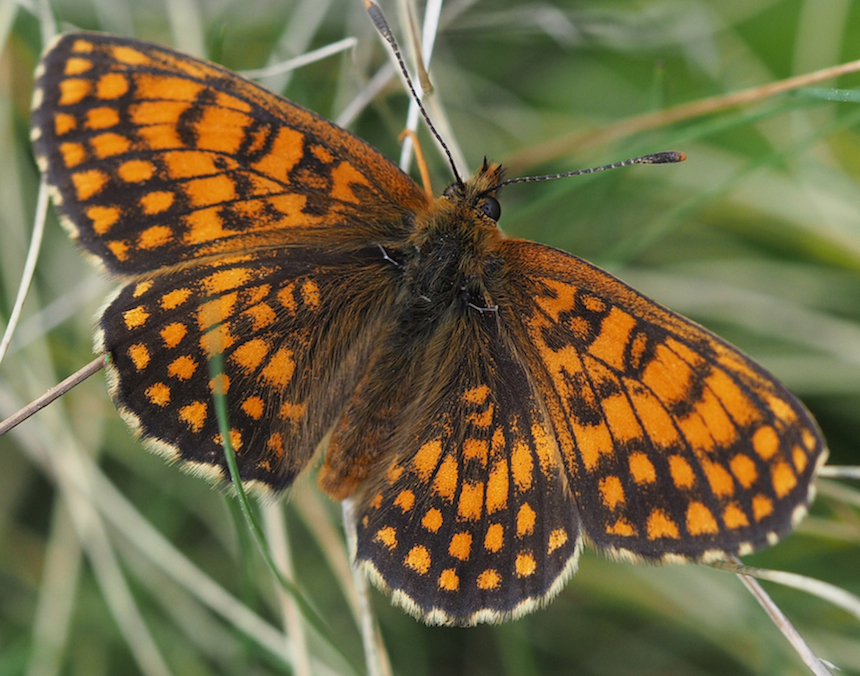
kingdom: Animalia
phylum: Arthropoda
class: Insecta
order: Lepidoptera
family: Nymphalidae
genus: Melitaea
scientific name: Melitaea athalia
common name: Heath fritillary
